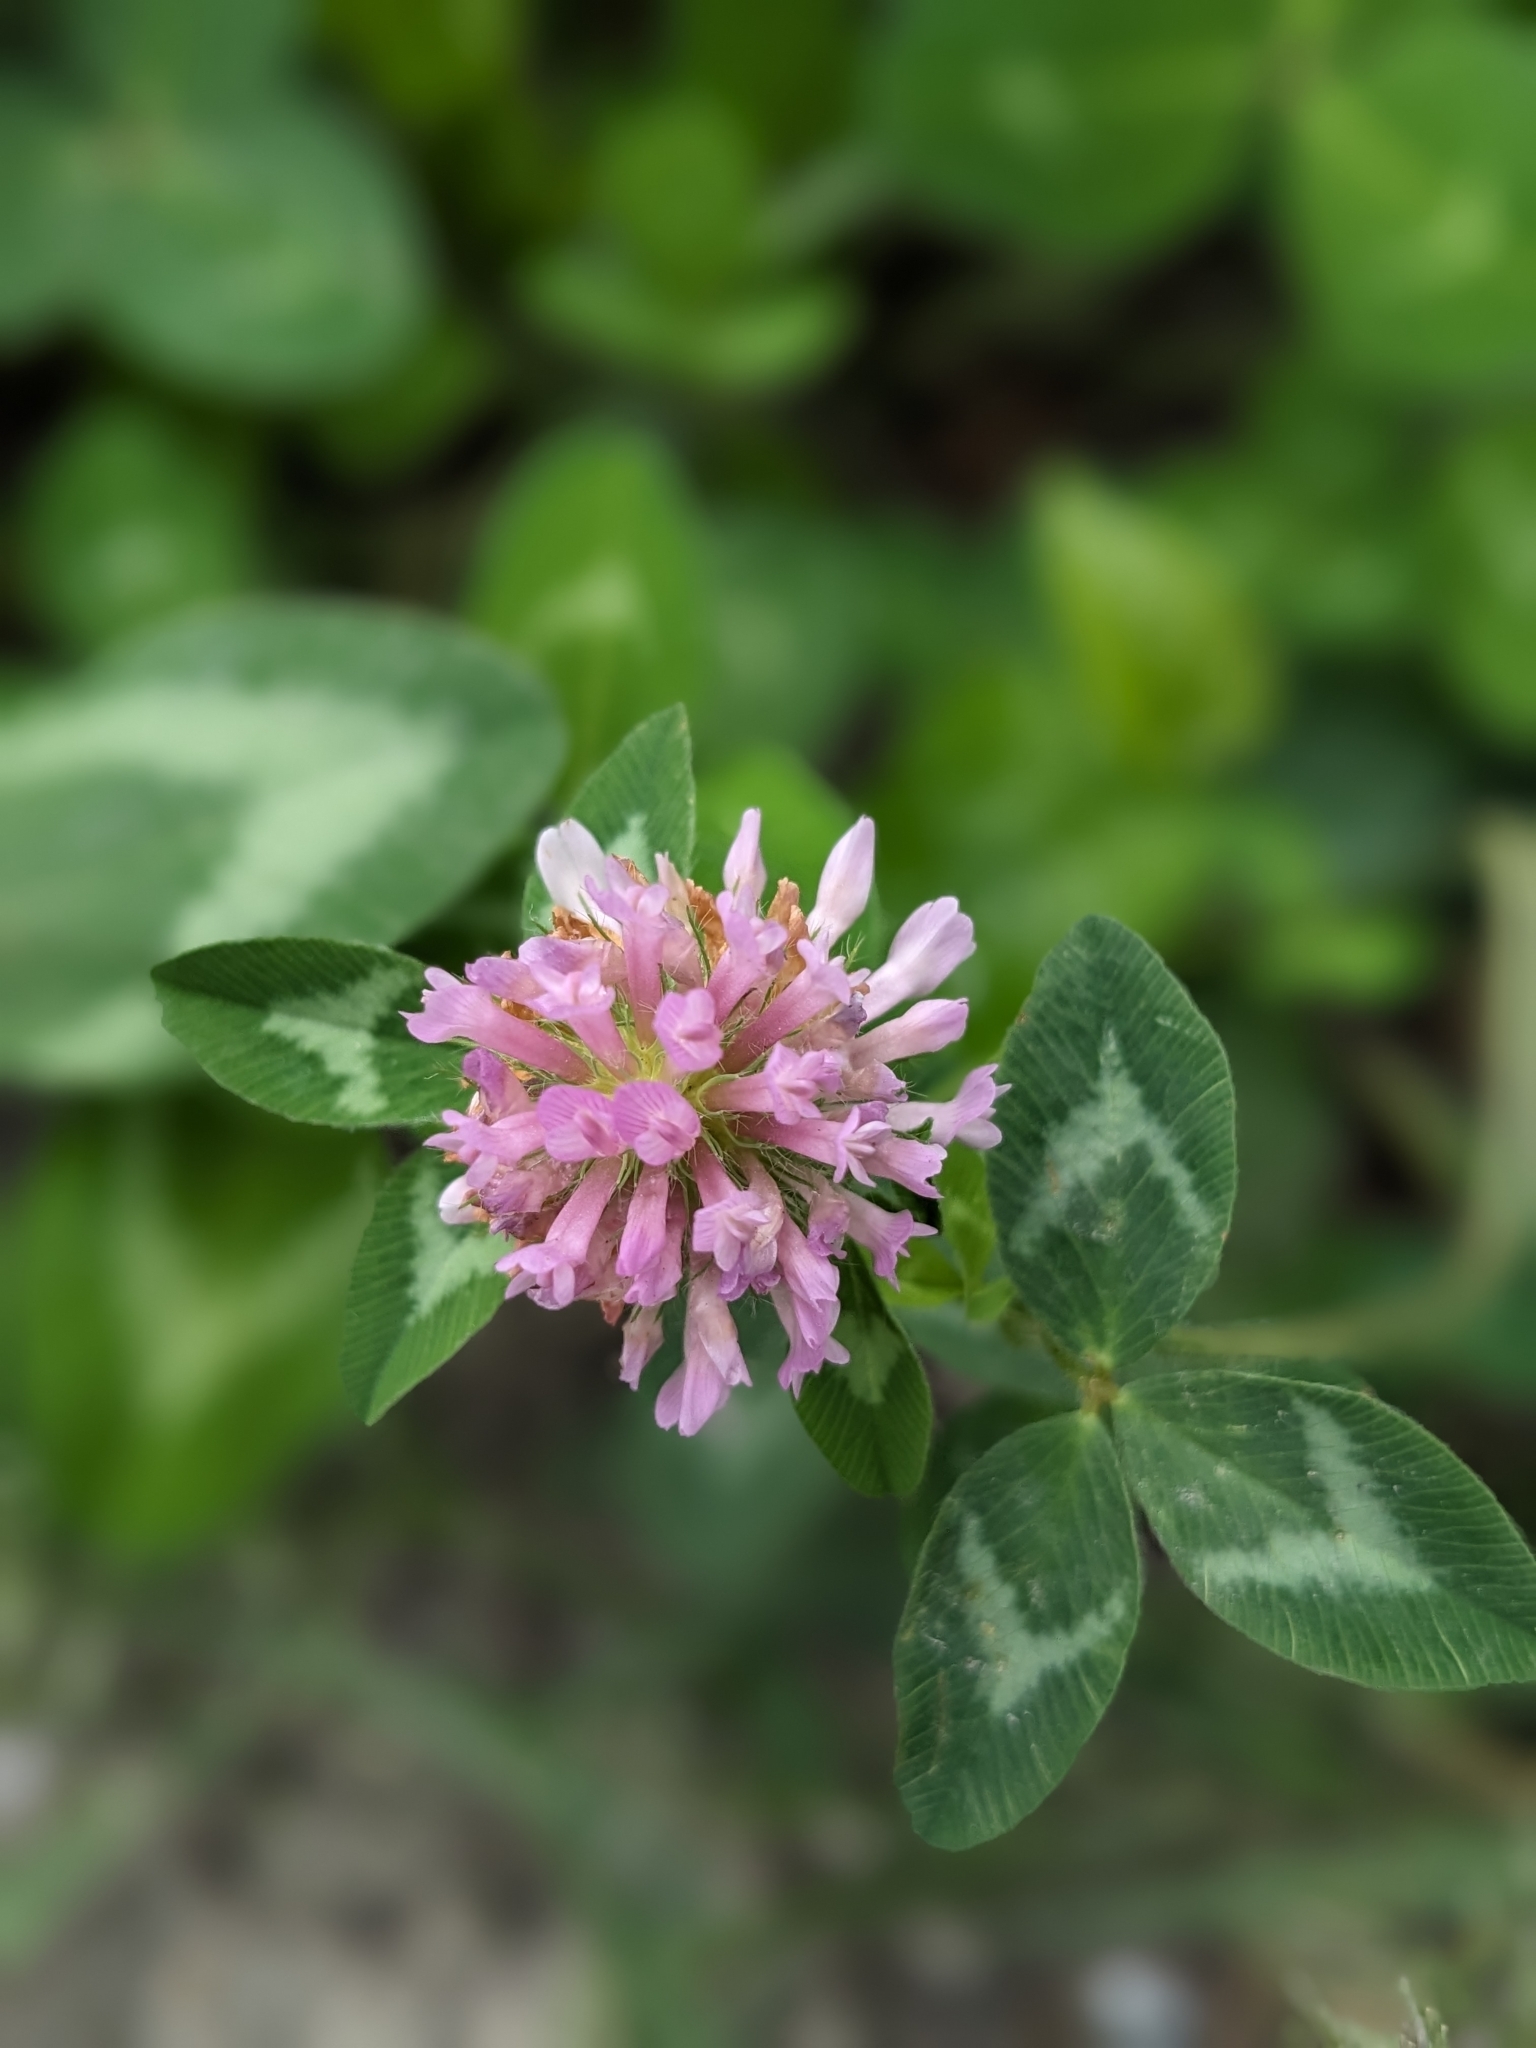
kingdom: Plantae
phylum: Tracheophyta
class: Magnoliopsida
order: Fabales
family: Fabaceae
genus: Trifolium
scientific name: Trifolium pratense
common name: Red clover
